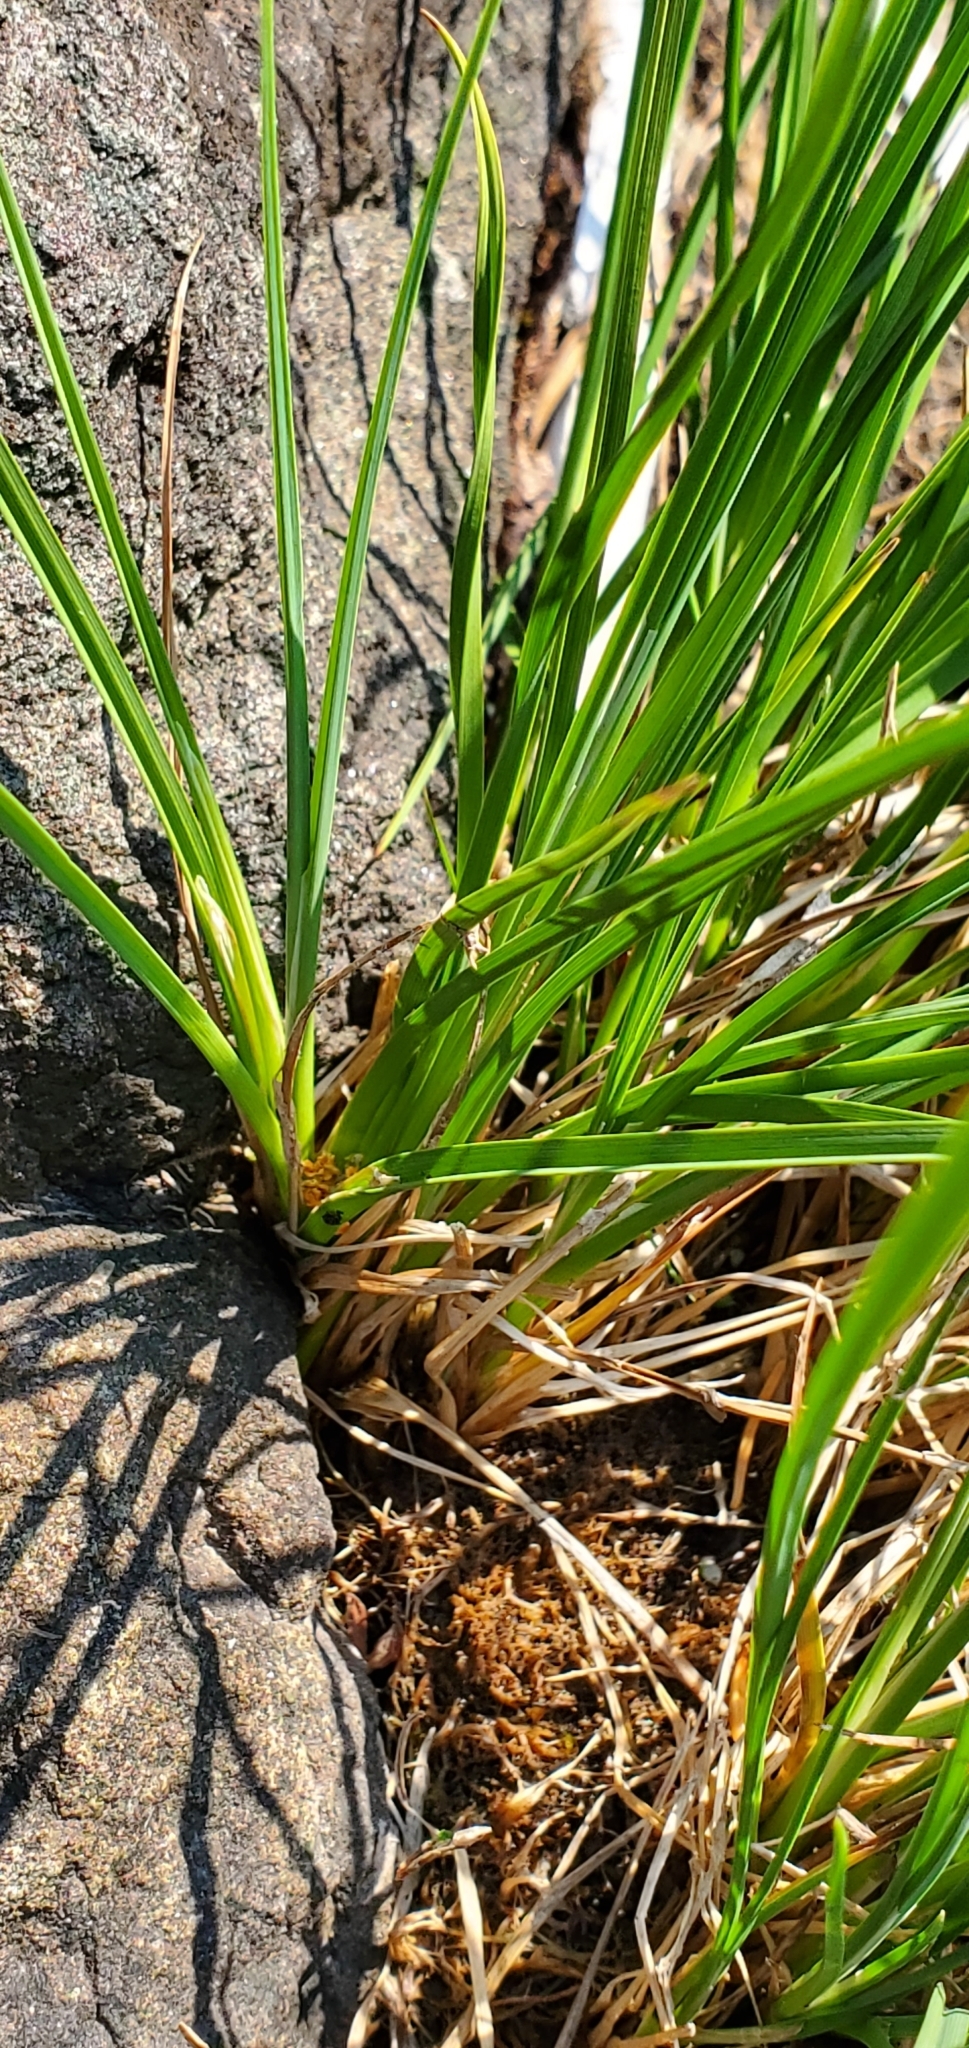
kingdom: Plantae
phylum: Tracheophyta
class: Liliopsida
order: Poales
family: Cyperaceae
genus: Carex
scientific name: Carex lenticularis
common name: Lakeshore sedge
